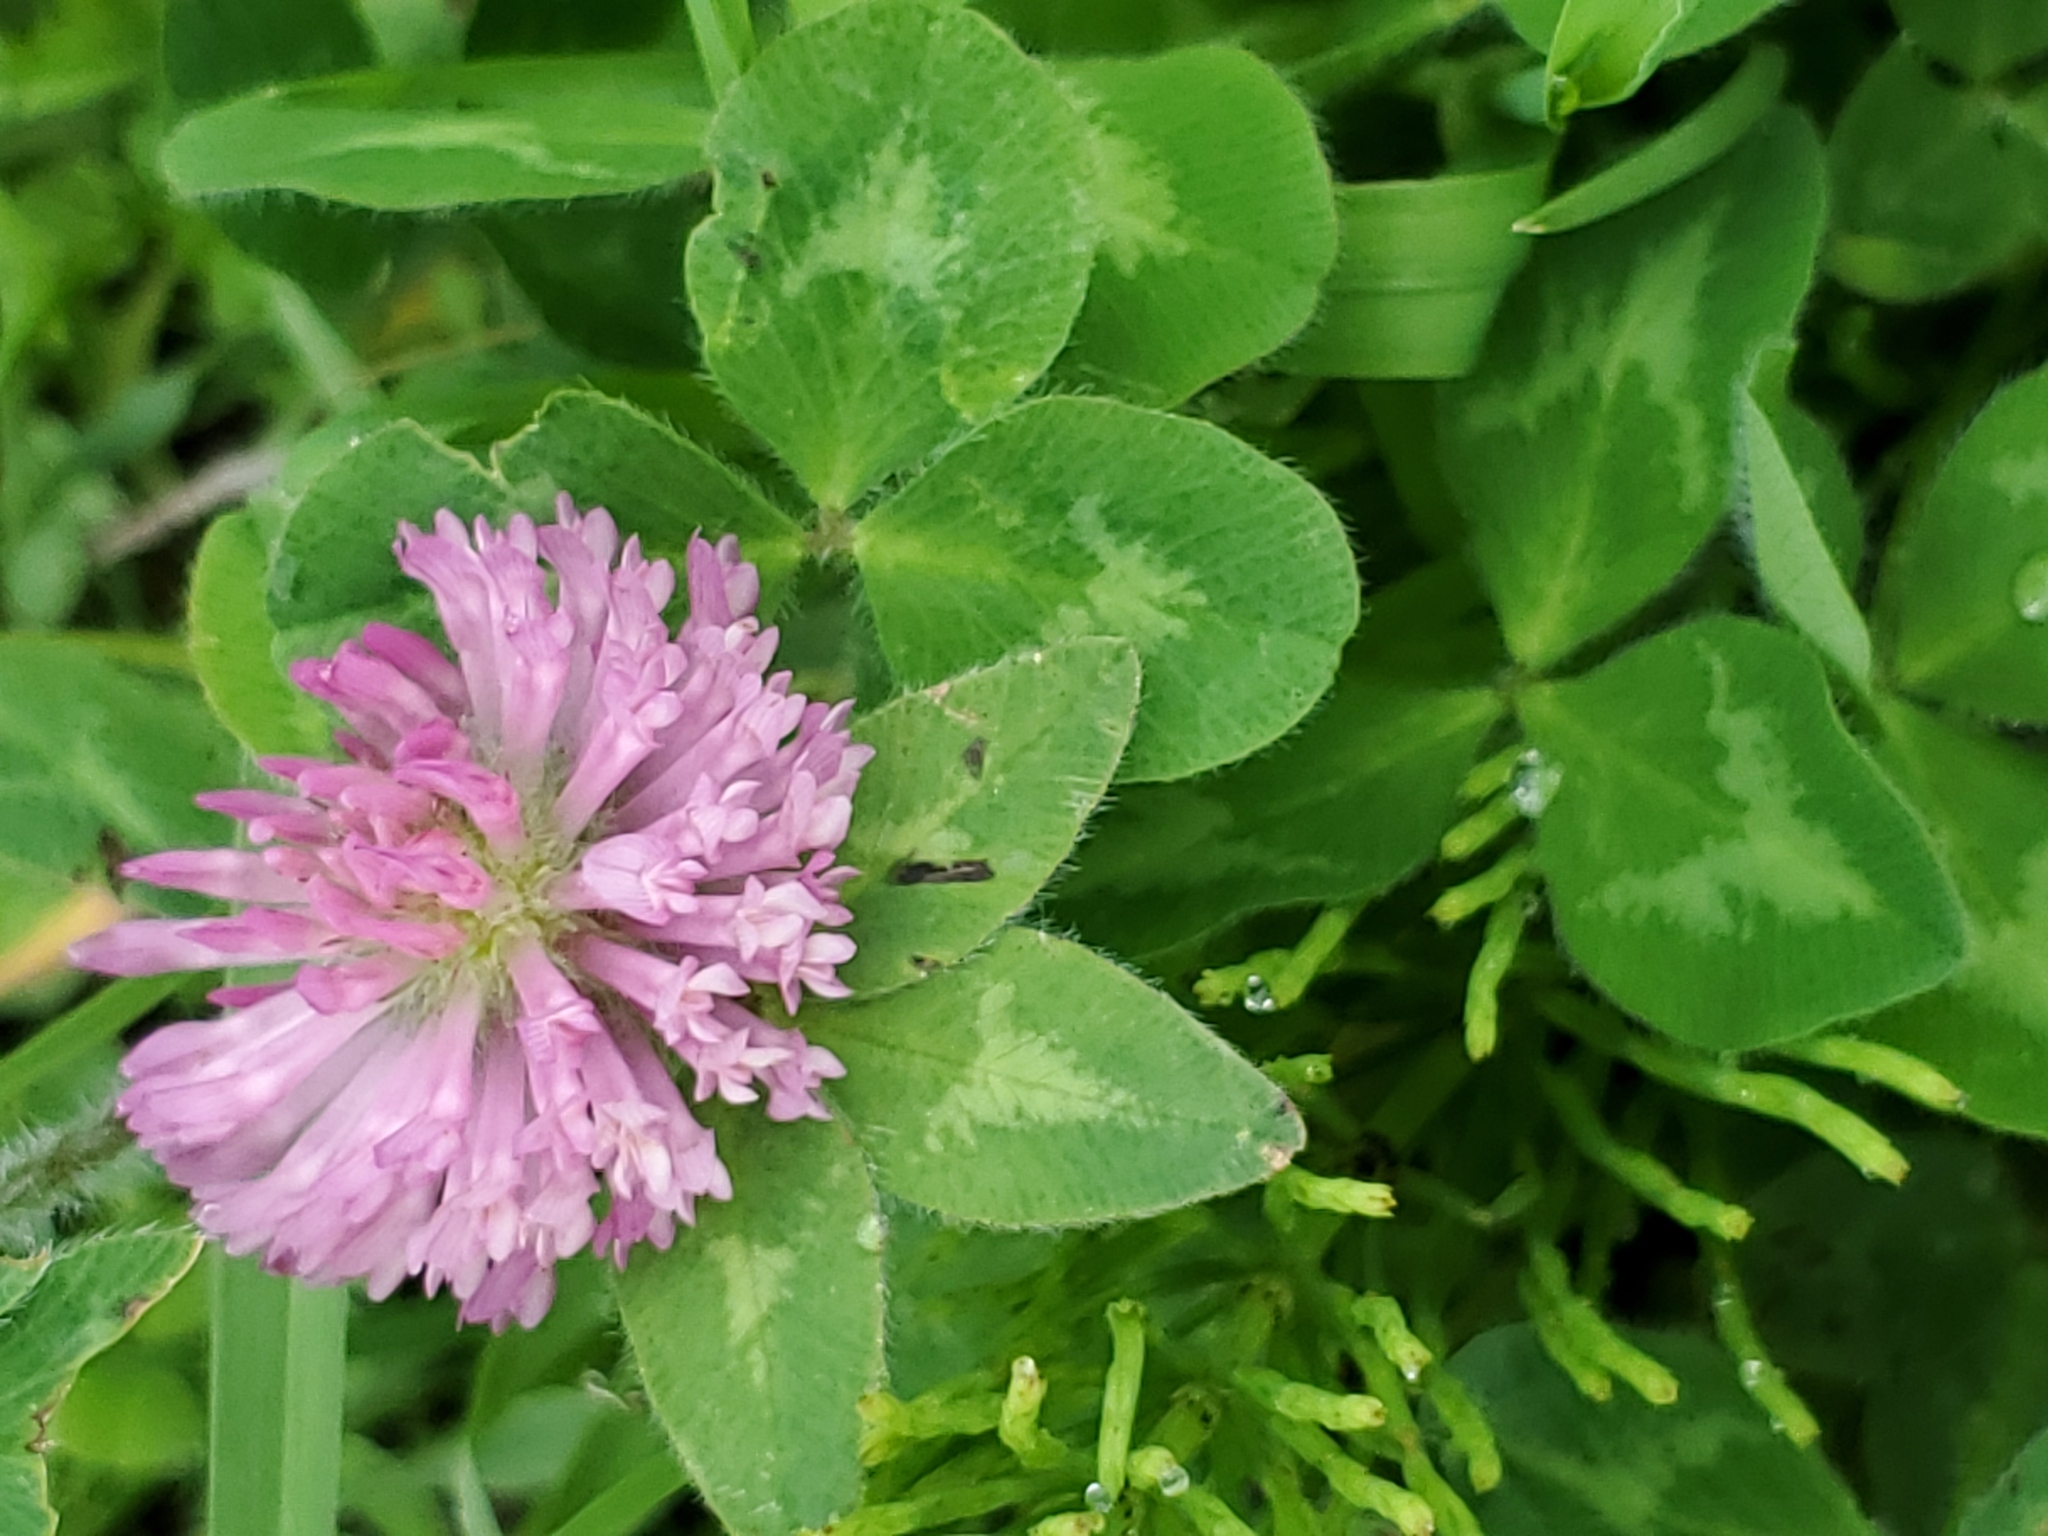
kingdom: Plantae
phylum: Tracheophyta
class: Magnoliopsida
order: Fabales
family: Fabaceae
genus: Trifolium
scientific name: Trifolium pratense
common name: Red clover
